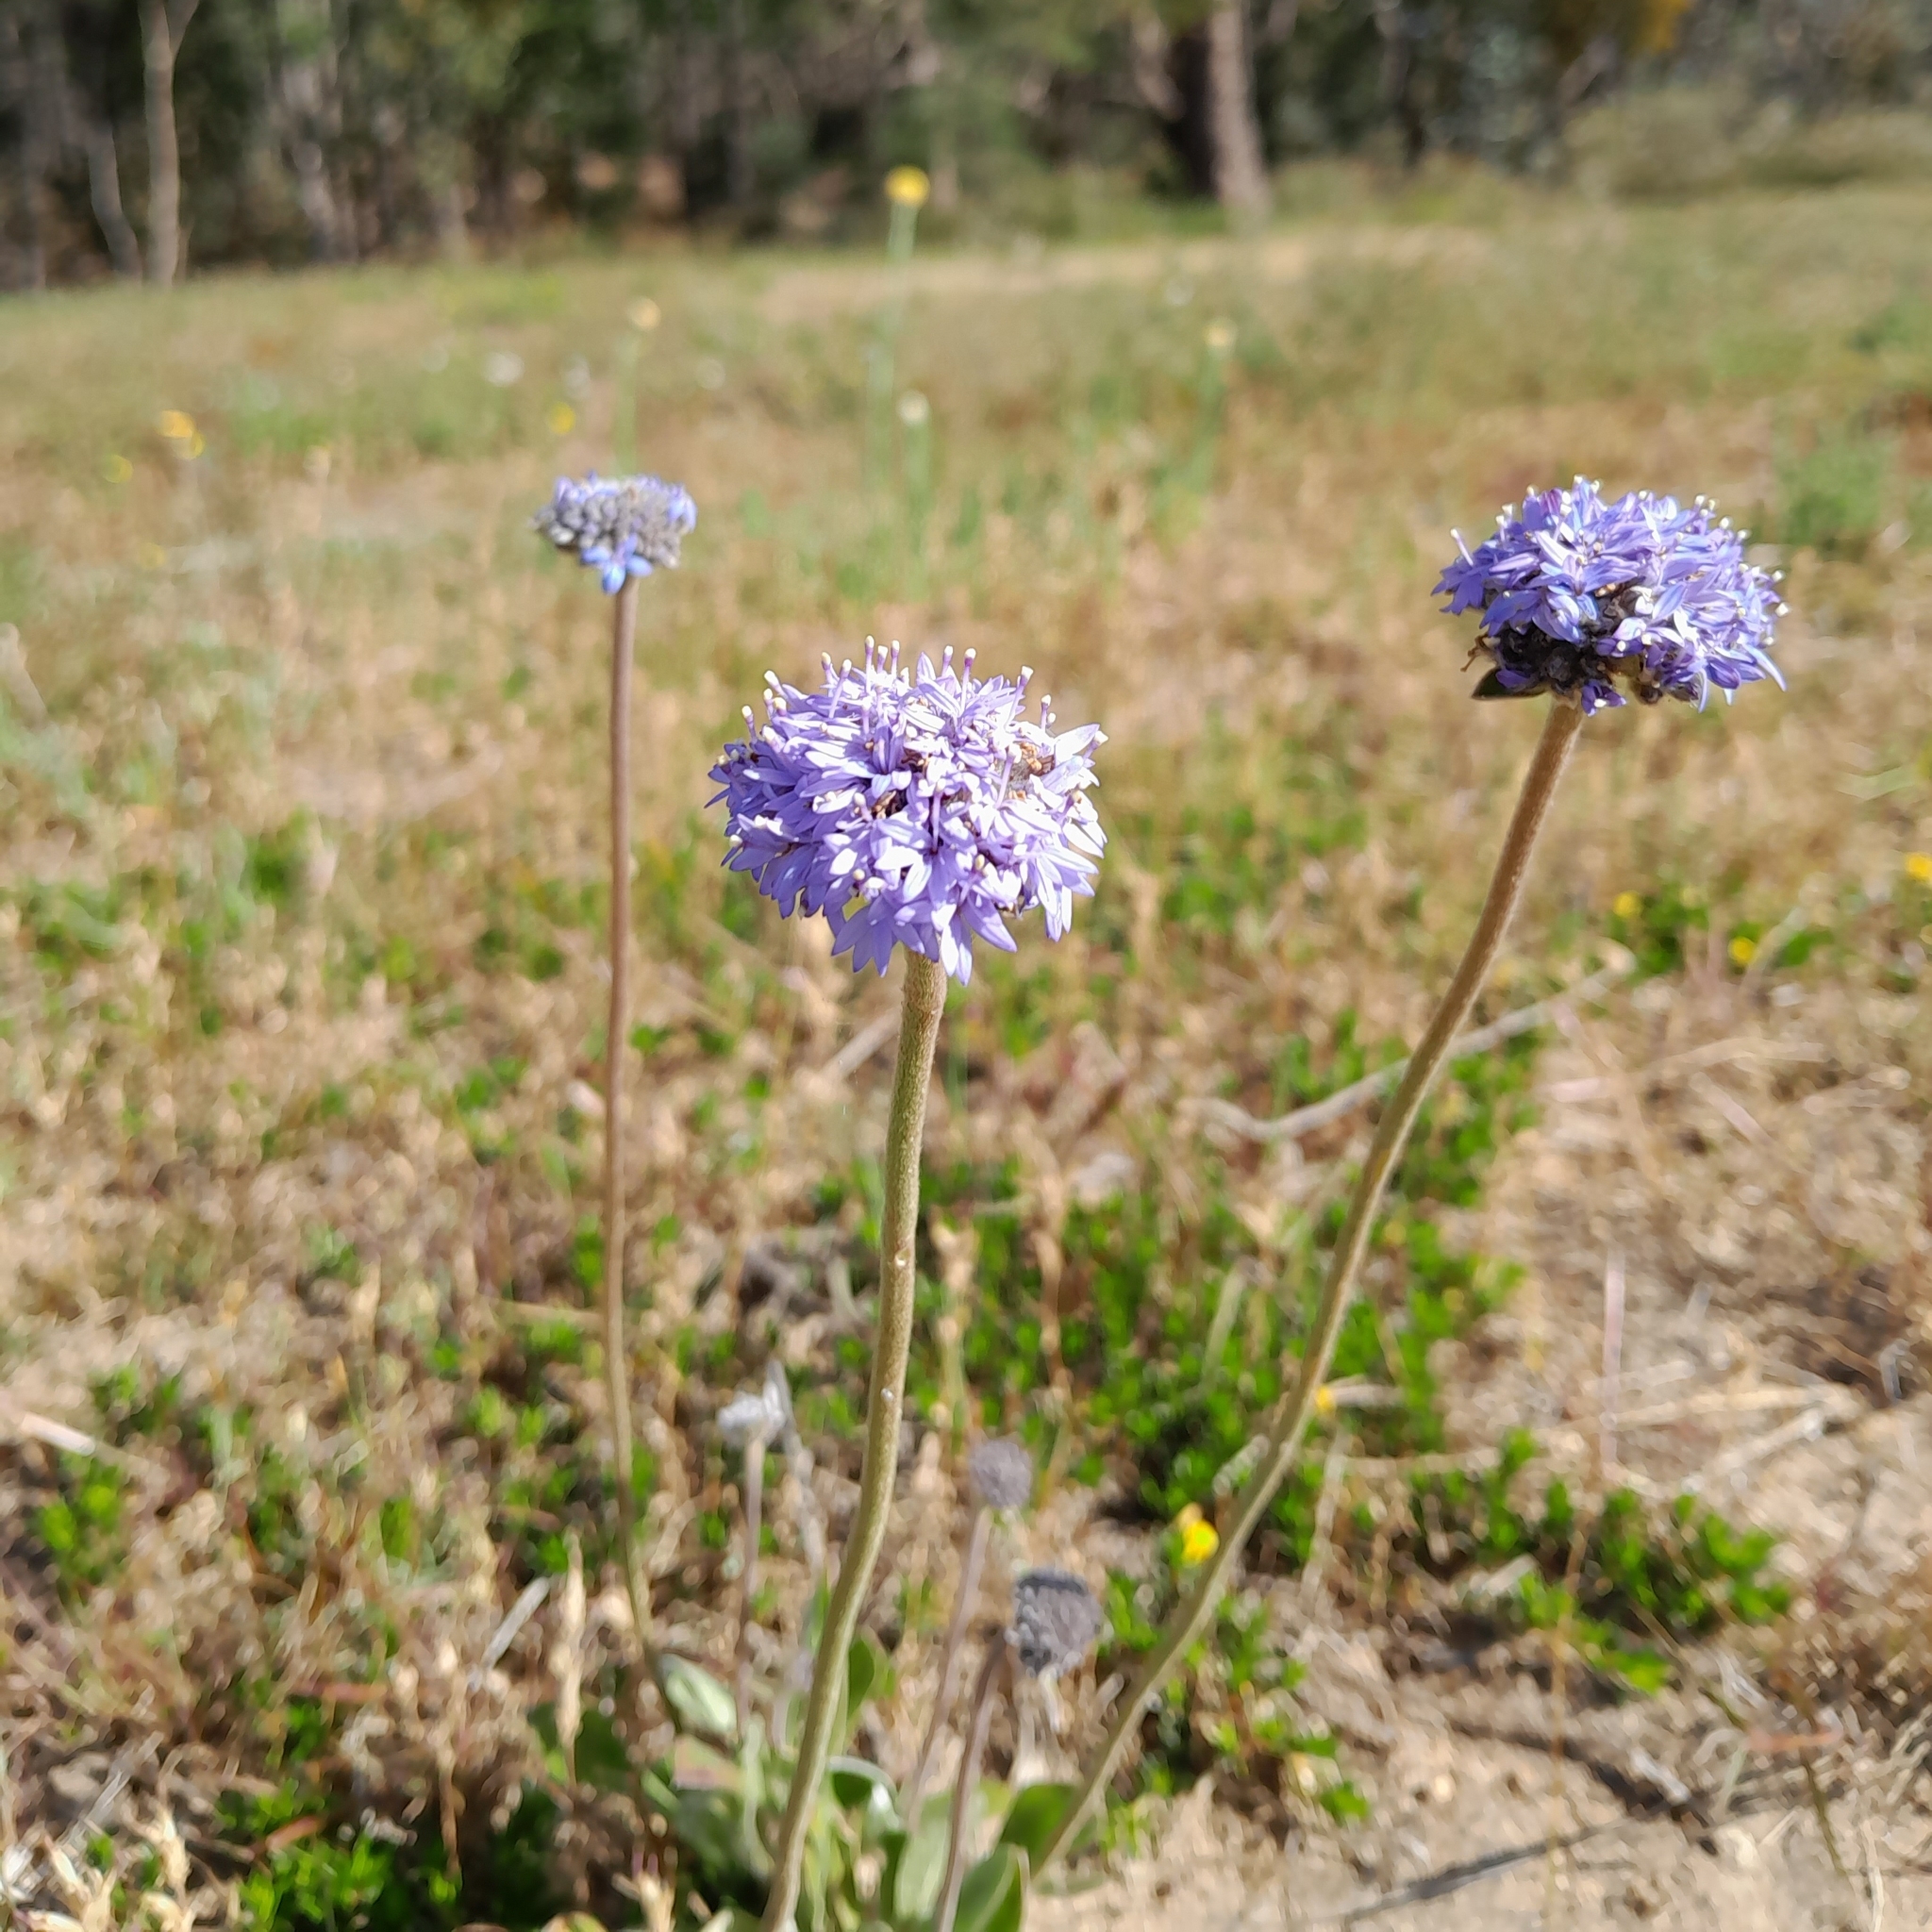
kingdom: Plantae
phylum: Tracheophyta
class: Magnoliopsida
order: Asterales
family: Goodeniaceae
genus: Brunonia
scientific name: Brunonia australis
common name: Blue pincushion
